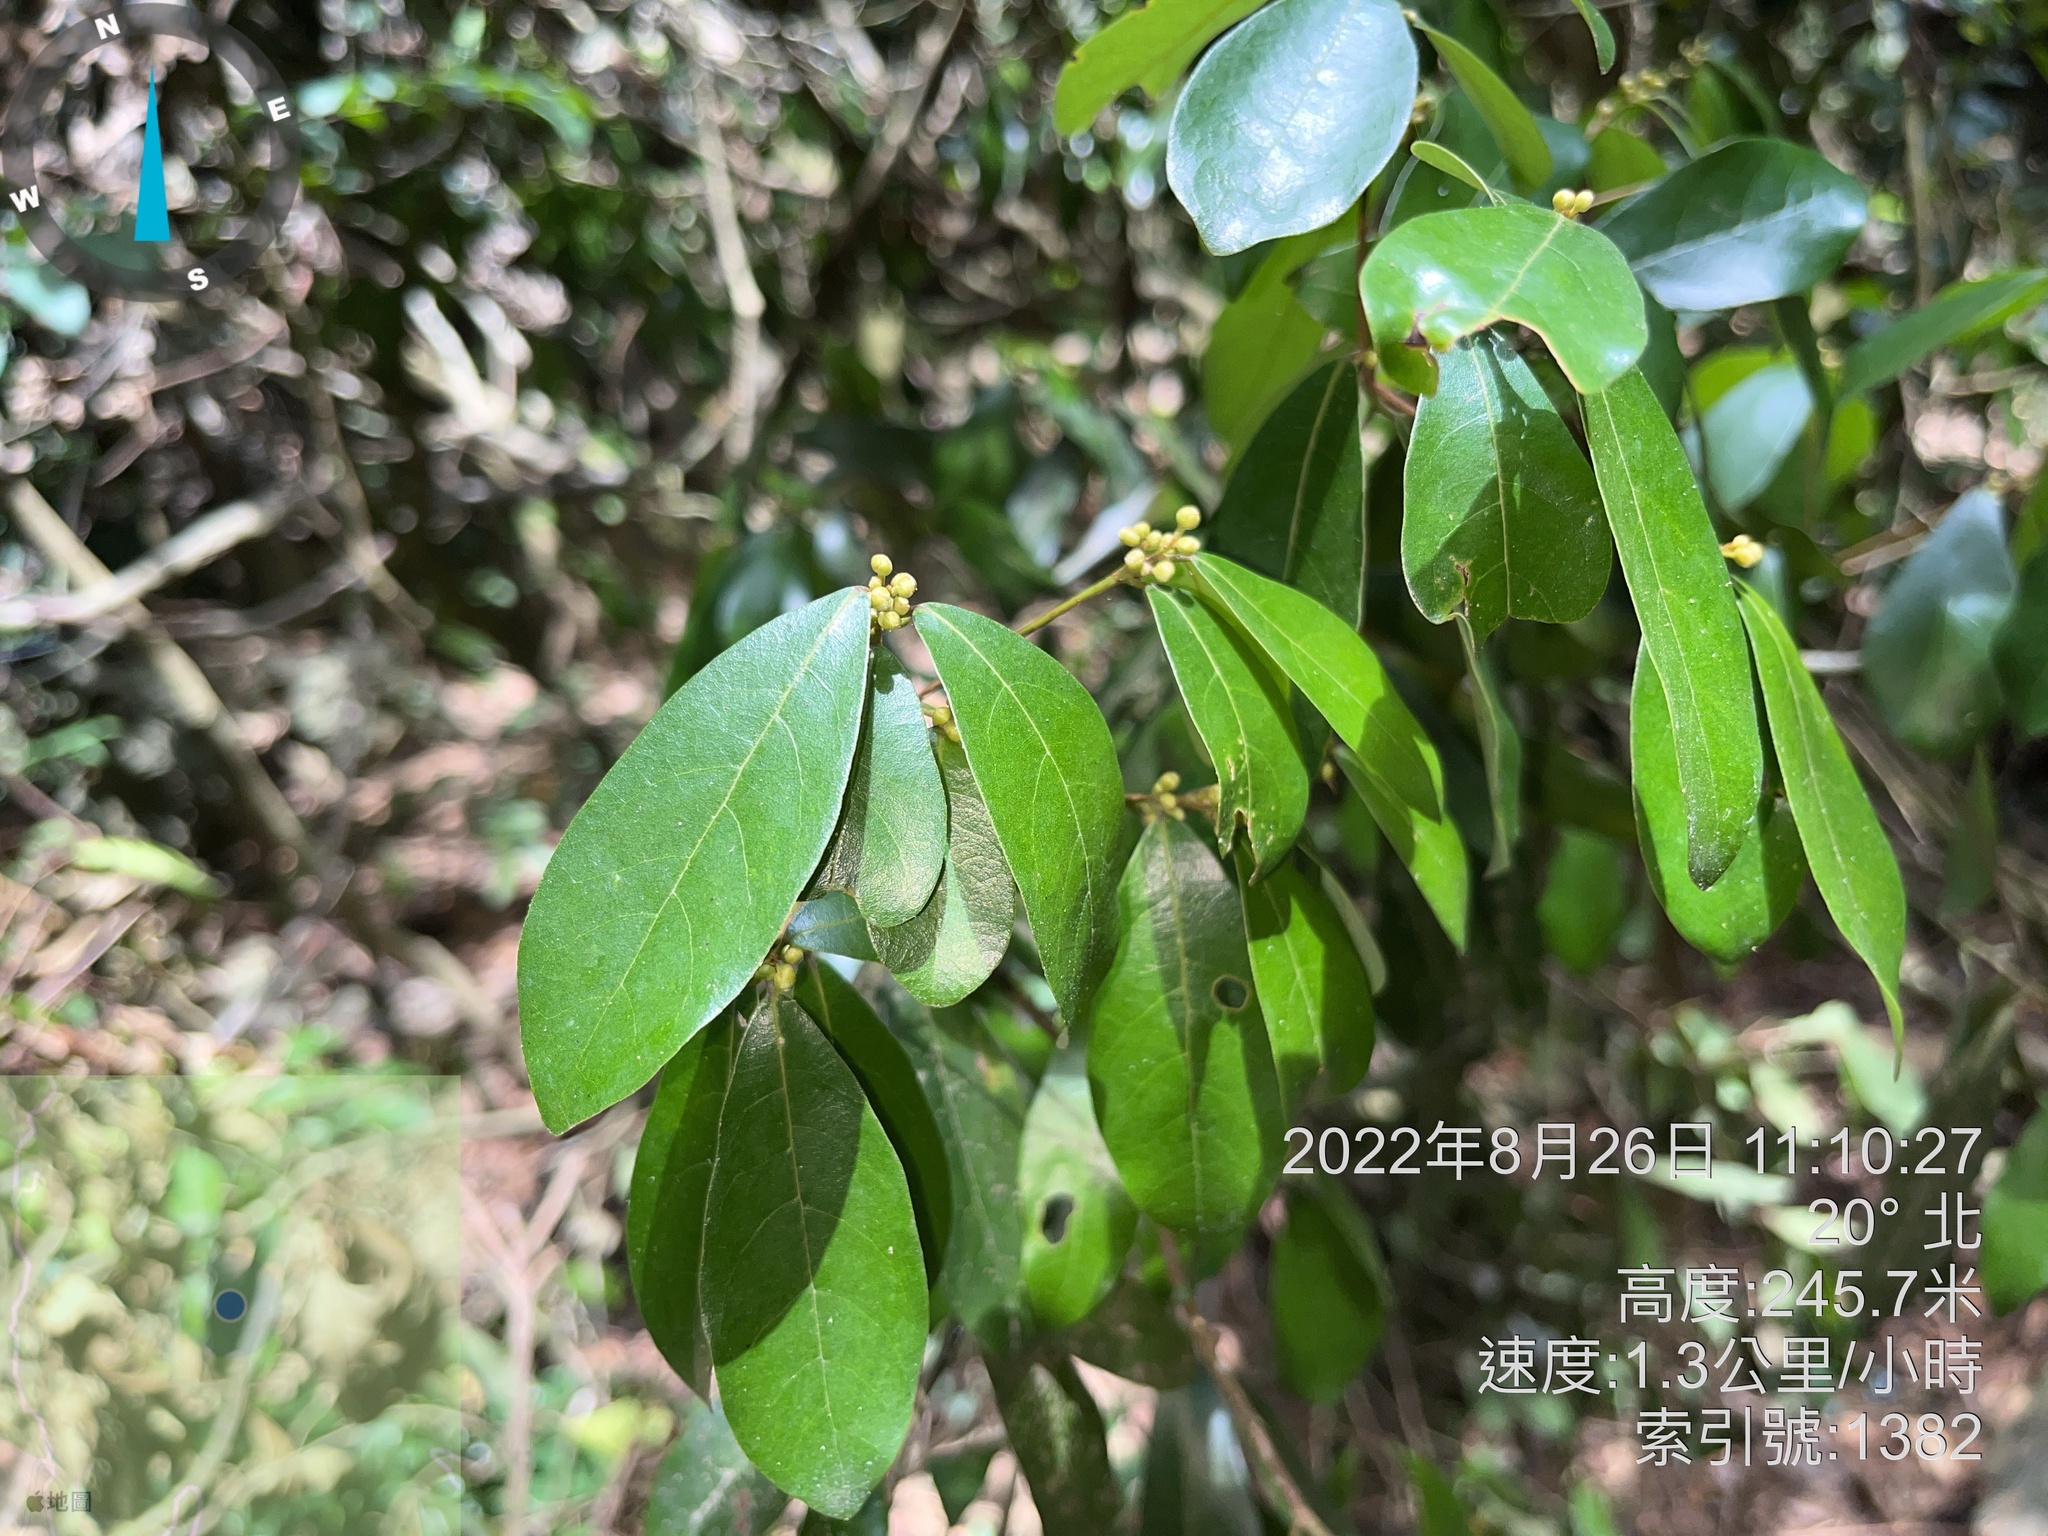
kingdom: Plantae
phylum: Tracheophyta
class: Magnoliopsida
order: Laurales
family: Lauraceae
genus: Litsea
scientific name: Litsea hypophaea
